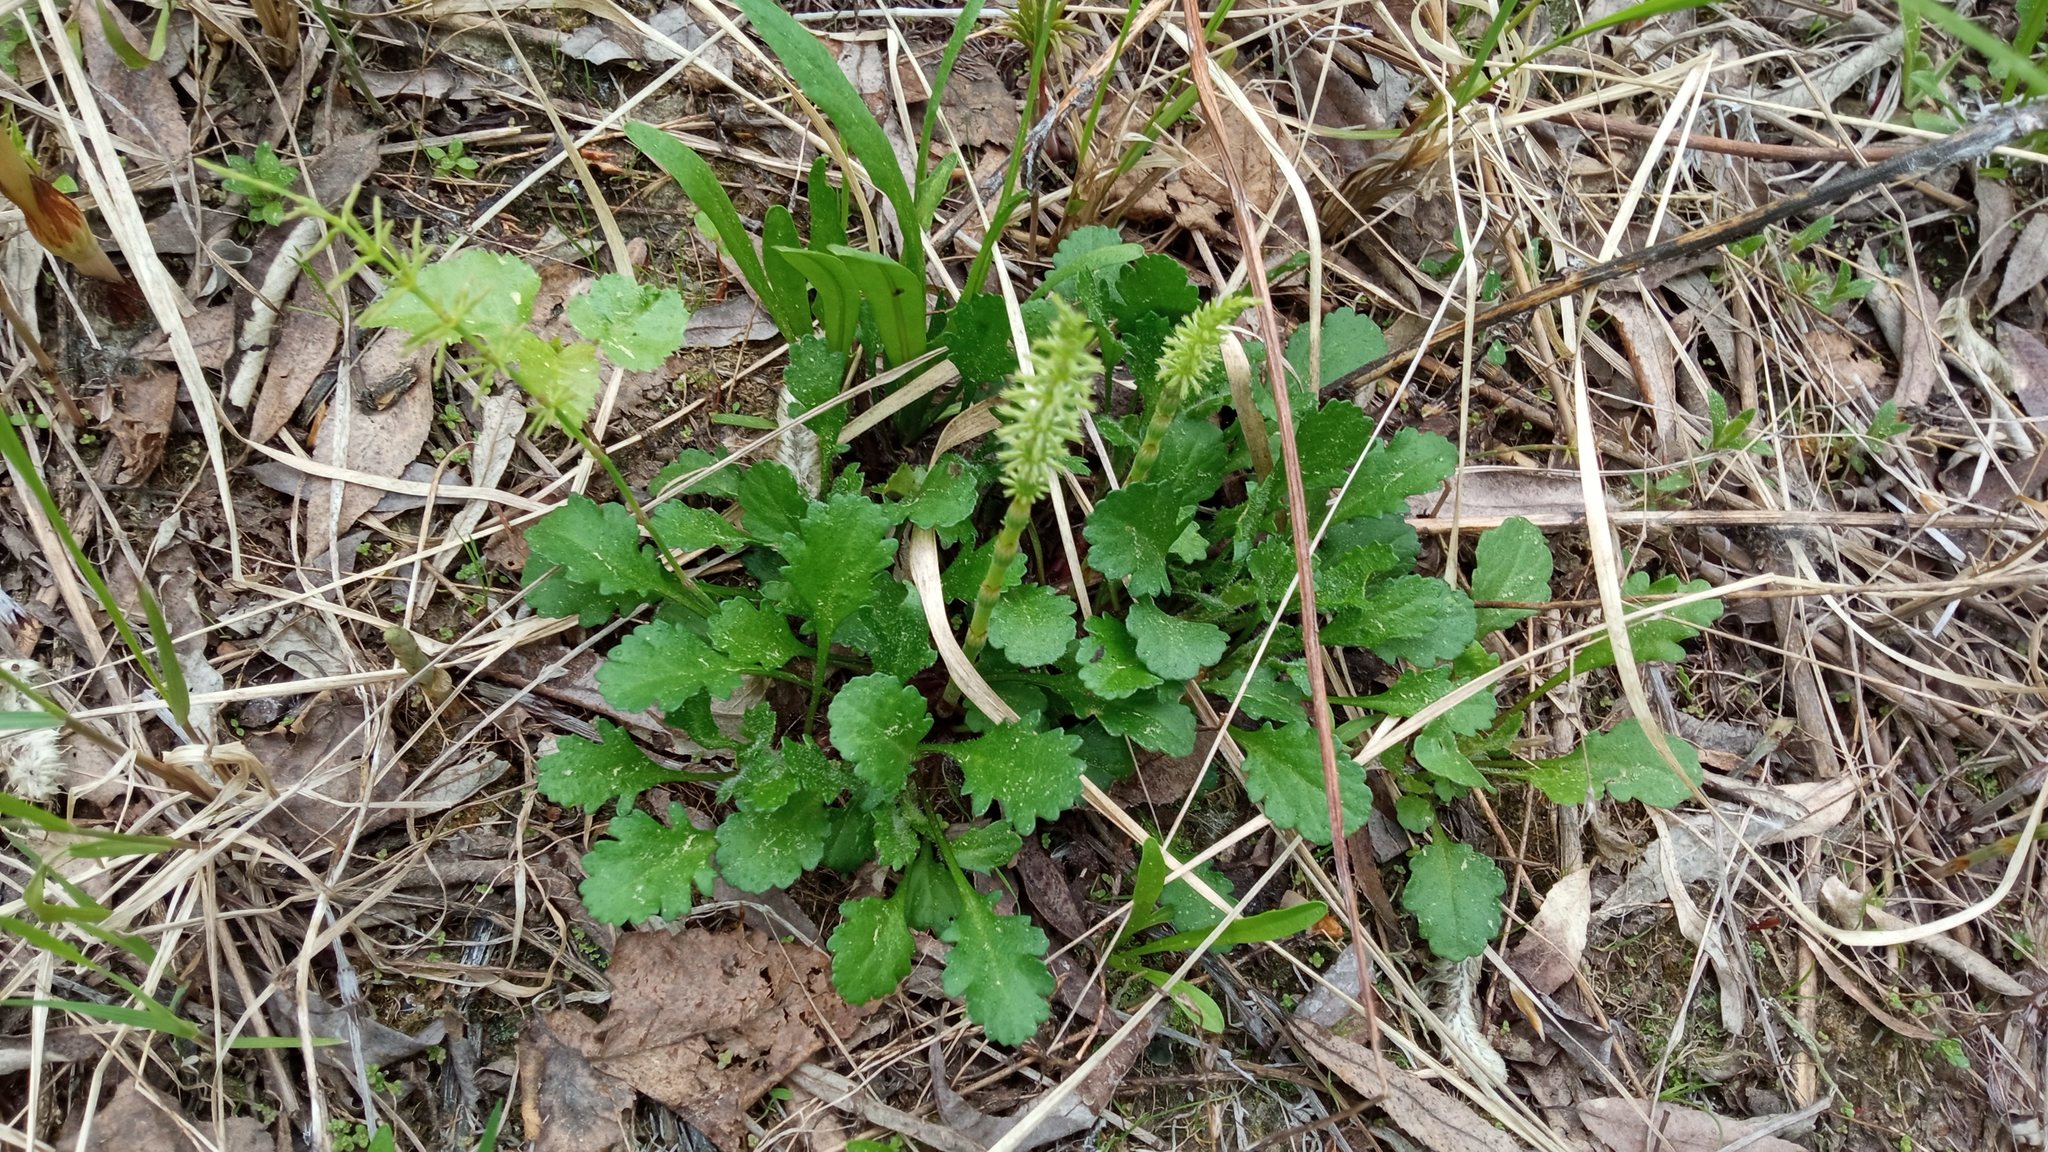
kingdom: Plantae
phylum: Tracheophyta
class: Magnoliopsida
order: Asterales
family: Asteraceae
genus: Leucanthemum
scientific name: Leucanthemum ircutianum
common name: Daisy
